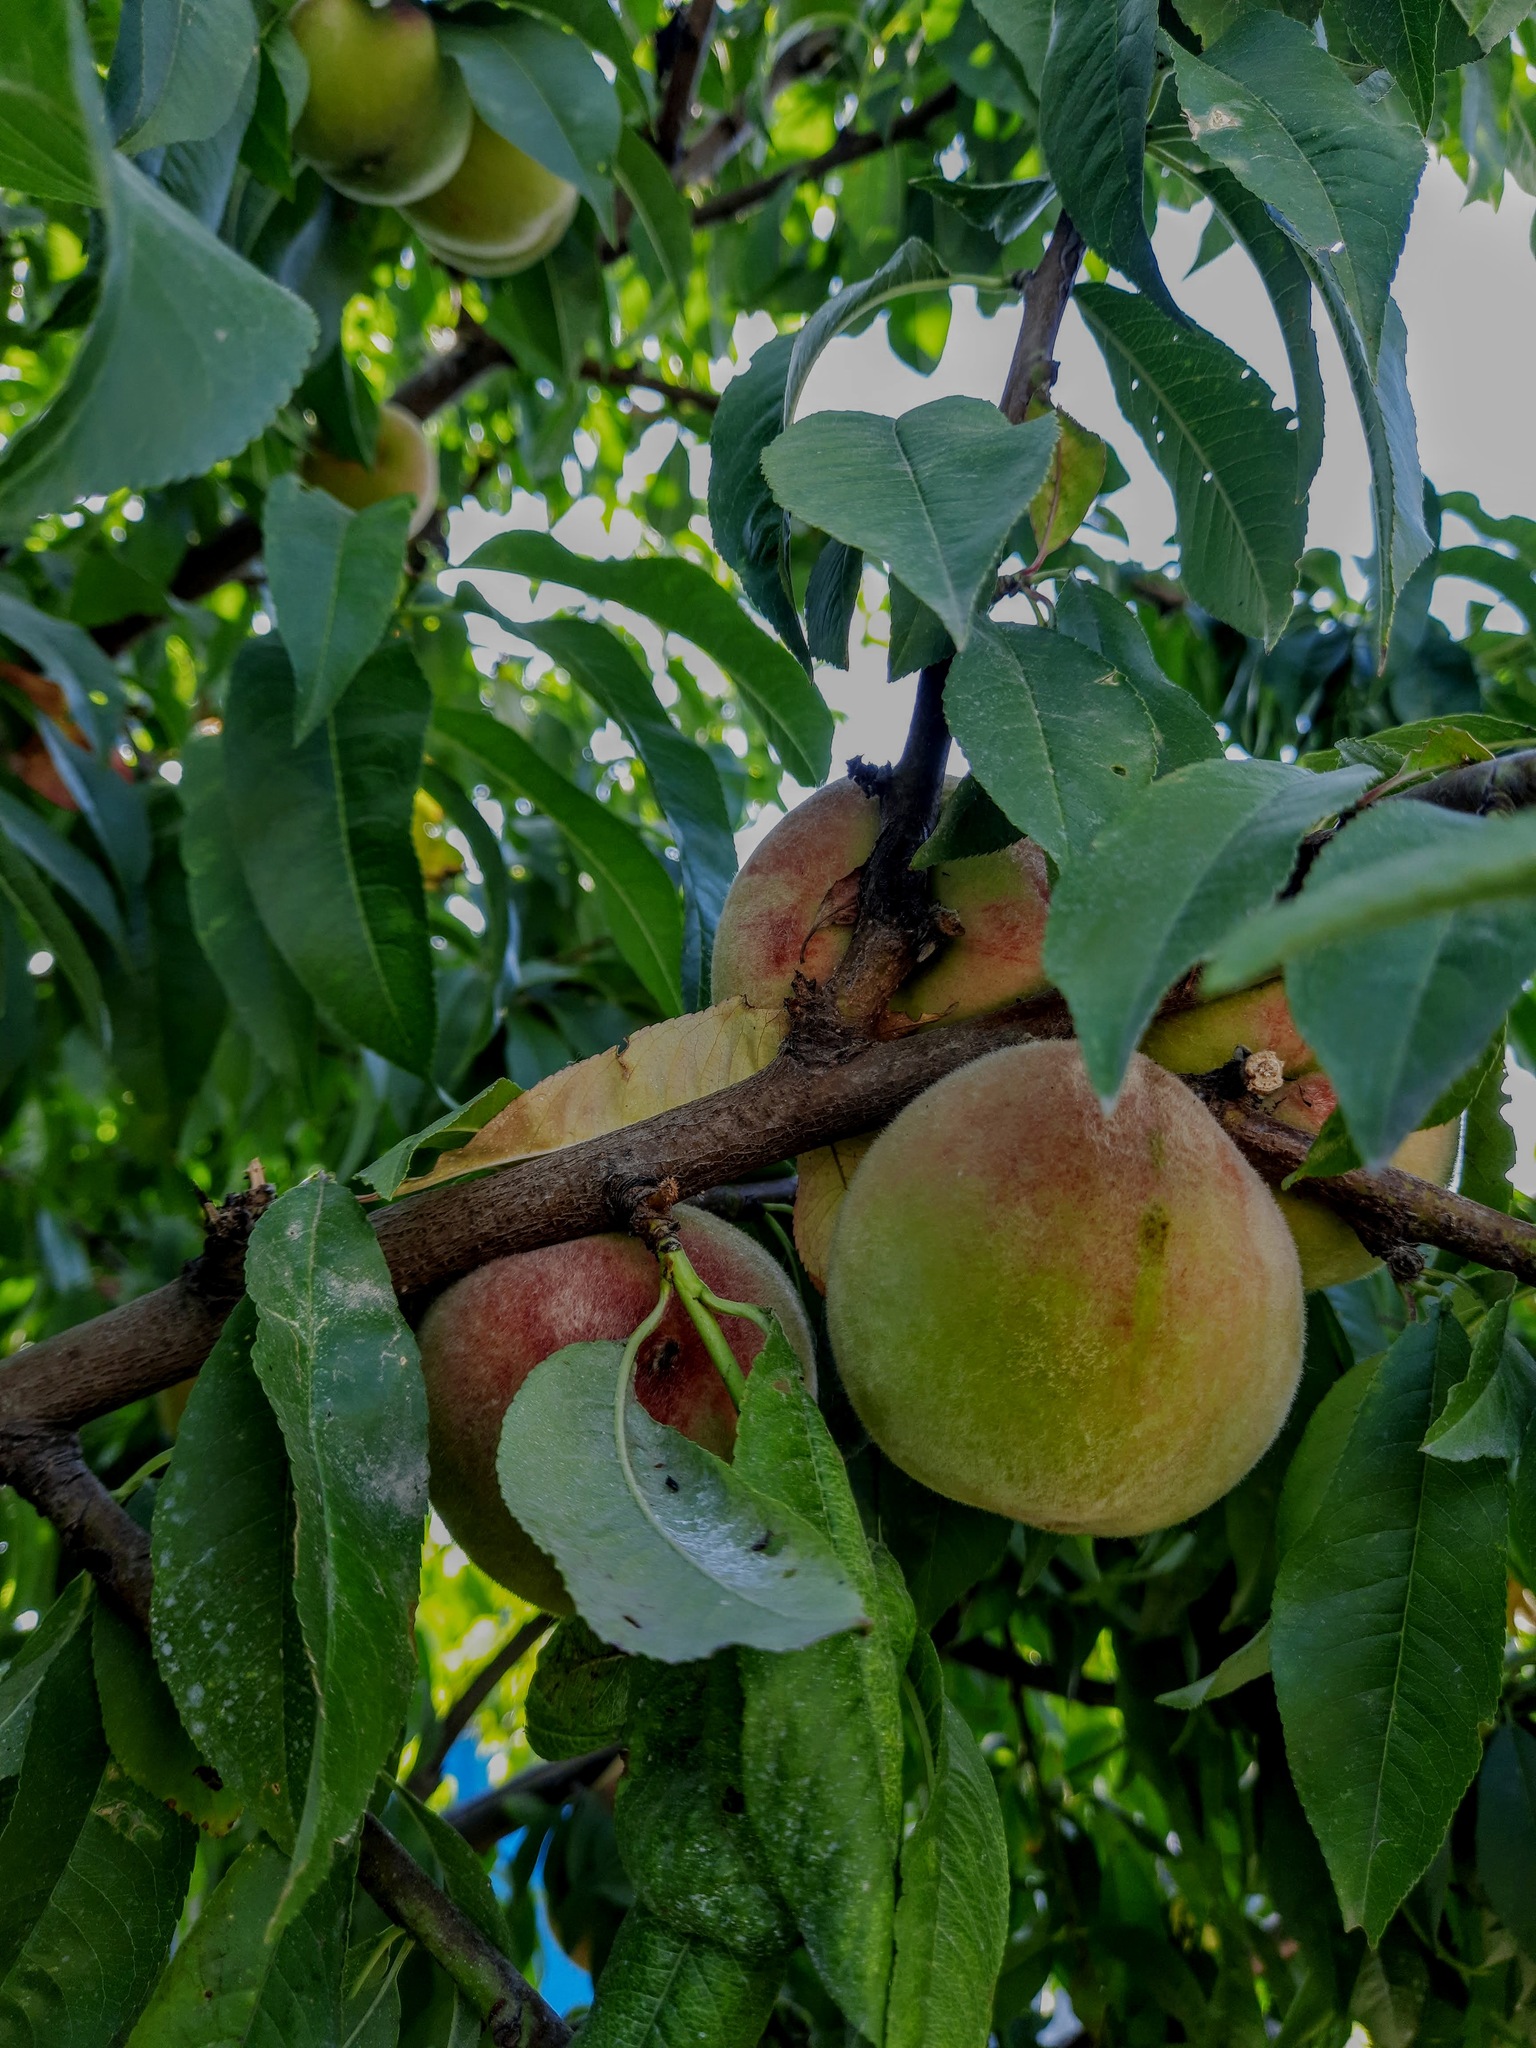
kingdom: Plantae
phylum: Tracheophyta
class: Magnoliopsida
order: Rosales
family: Rosaceae
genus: Prunus
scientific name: Prunus persica
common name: Peach
